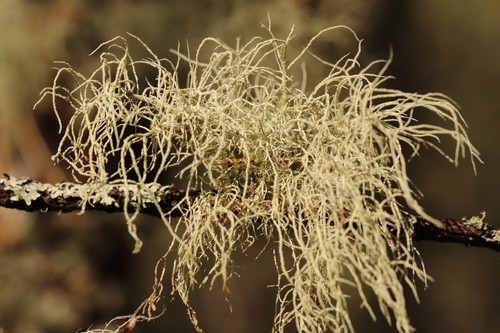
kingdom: Fungi
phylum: Ascomycota
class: Lecanoromycetes
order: Lecanorales
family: Parmeliaceae
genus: Usnea
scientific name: Usnea
